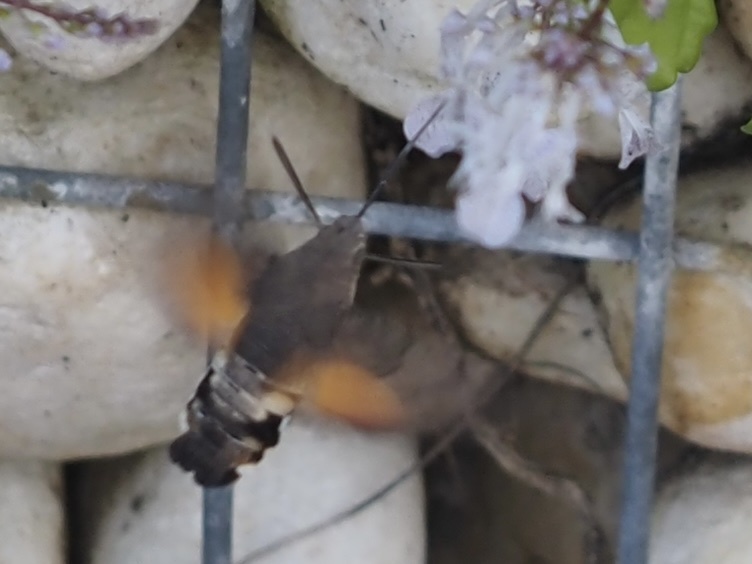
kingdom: Animalia
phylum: Arthropoda
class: Insecta
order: Lepidoptera
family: Sphingidae
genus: Macroglossum
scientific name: Macroglossum stellatarum
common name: Humming-bird hawk-moth
